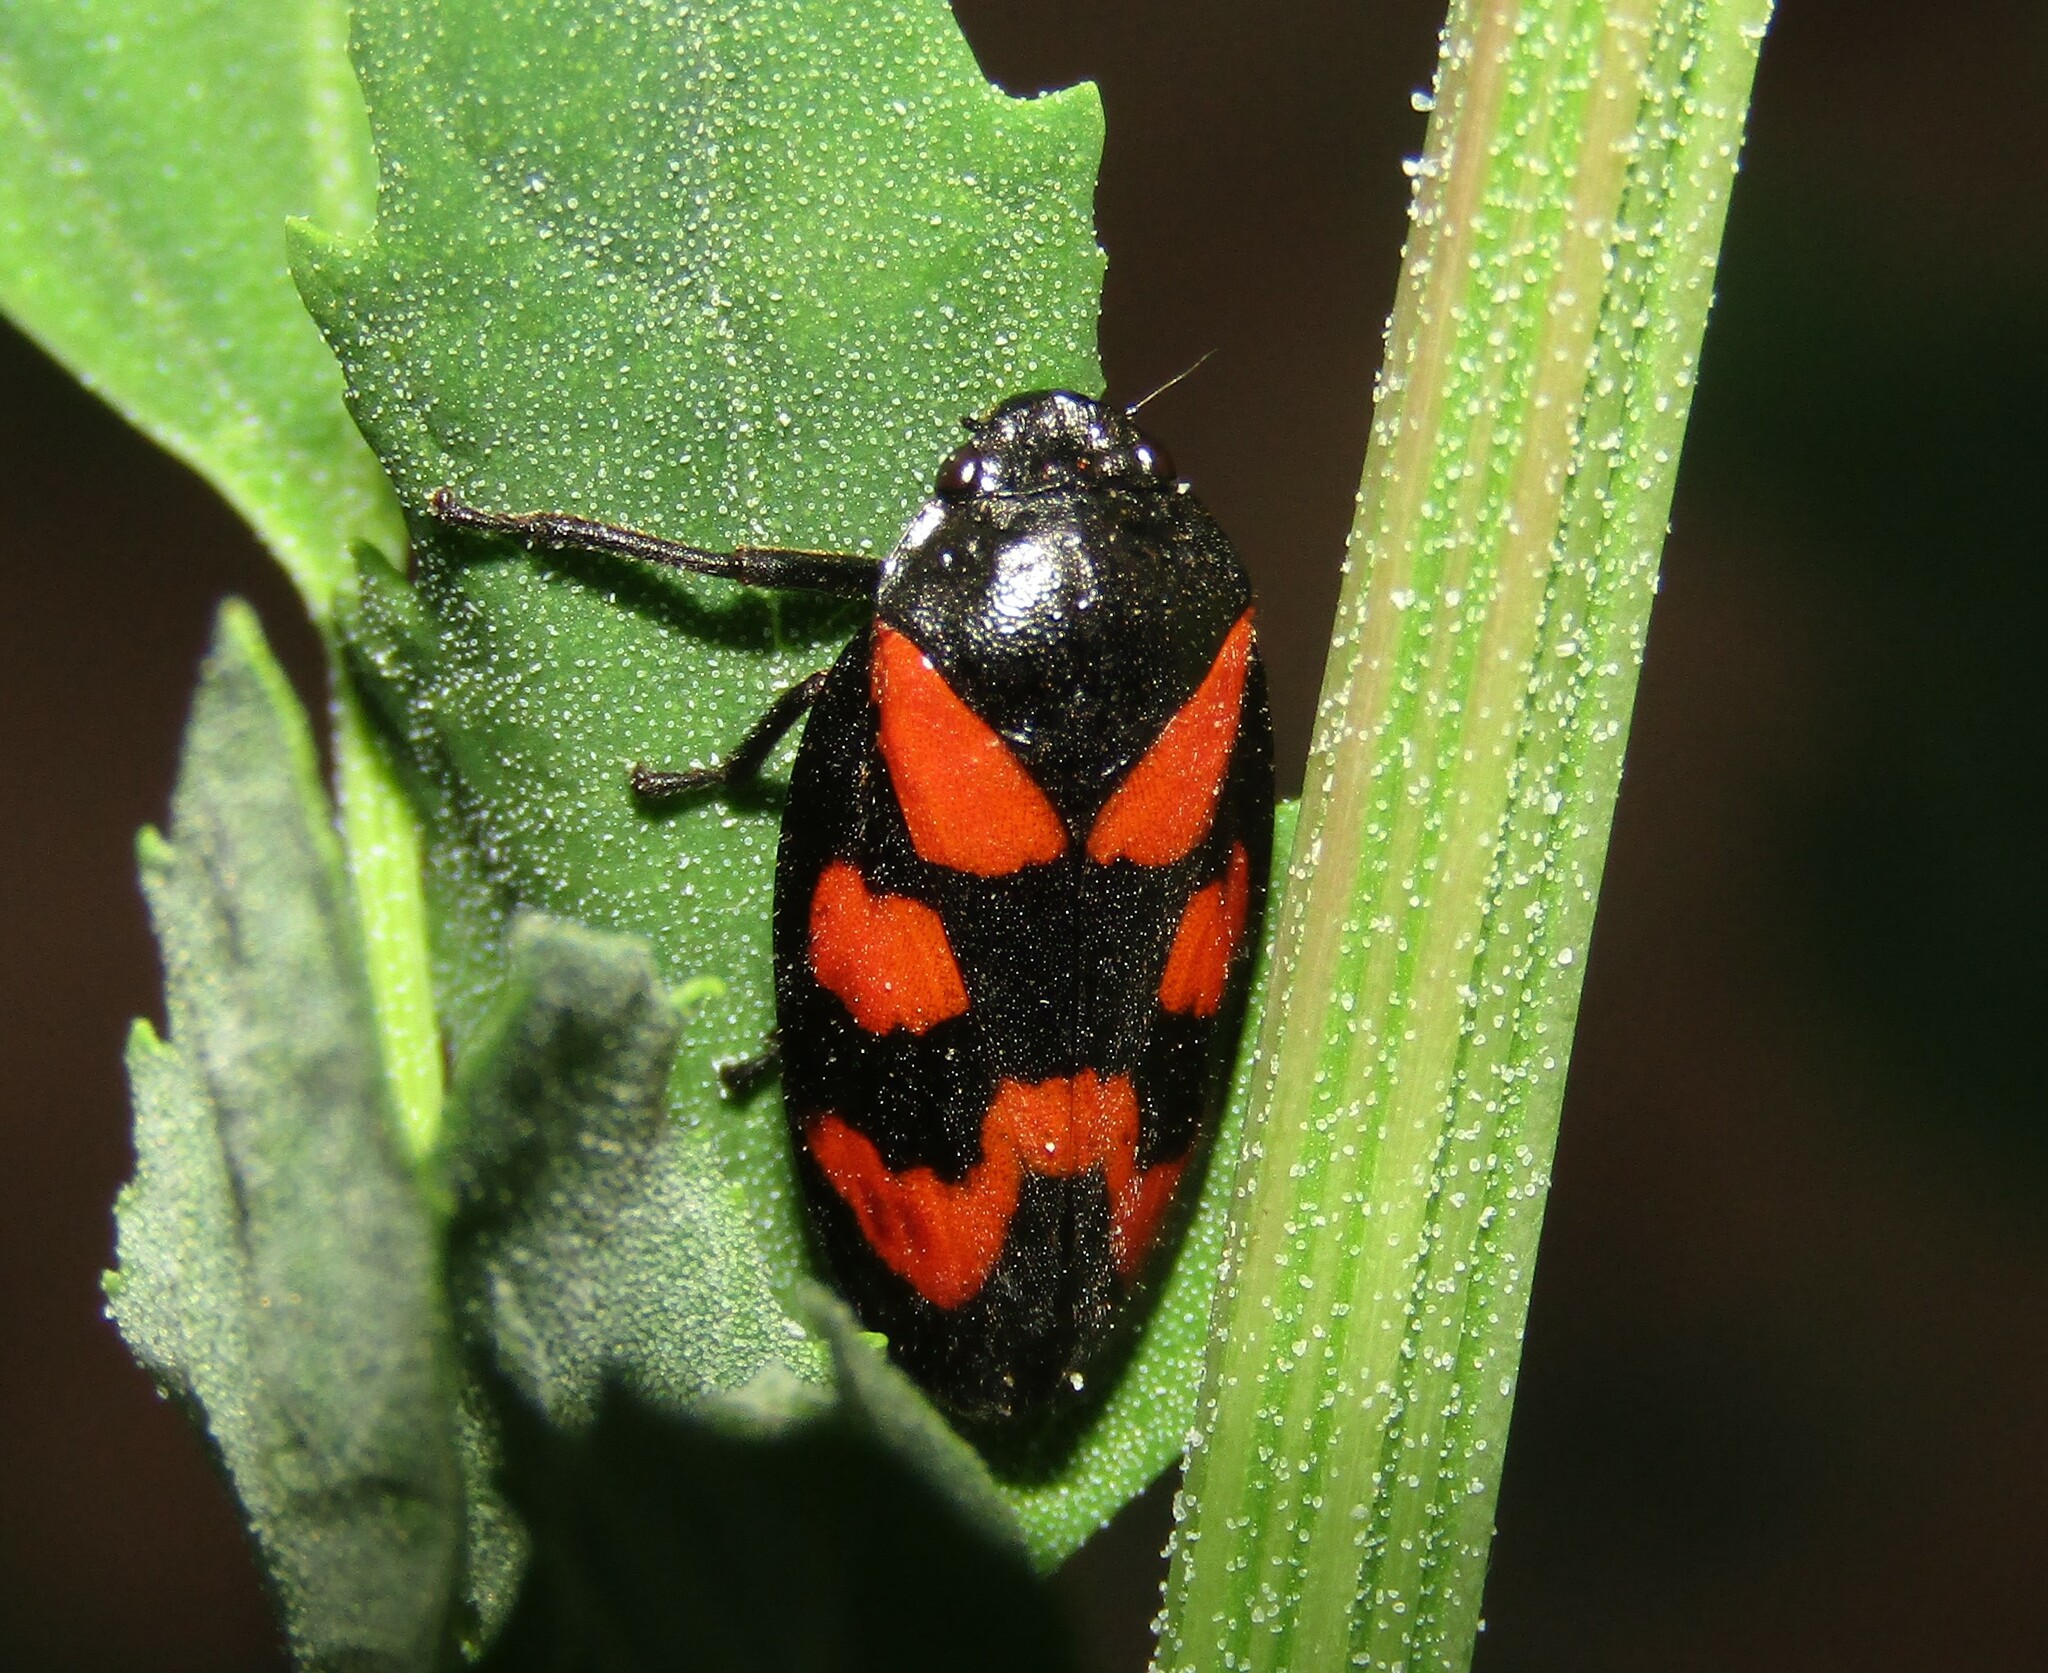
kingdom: Animalia
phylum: Arthropoda
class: Insecta
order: Hemiptera
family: Cercopidae
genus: Cercopis
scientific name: Cercopis vulnerata
